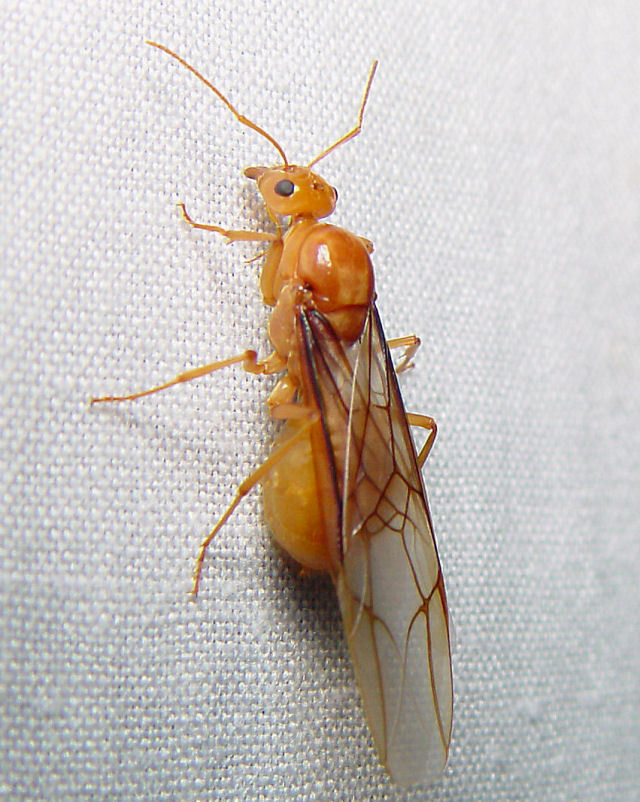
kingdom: Animalia
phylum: Arthropoda
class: Insecta
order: Hymenoptera
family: Formicidae
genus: Myrmecocystus
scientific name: Myrmecocystus mexicanus
